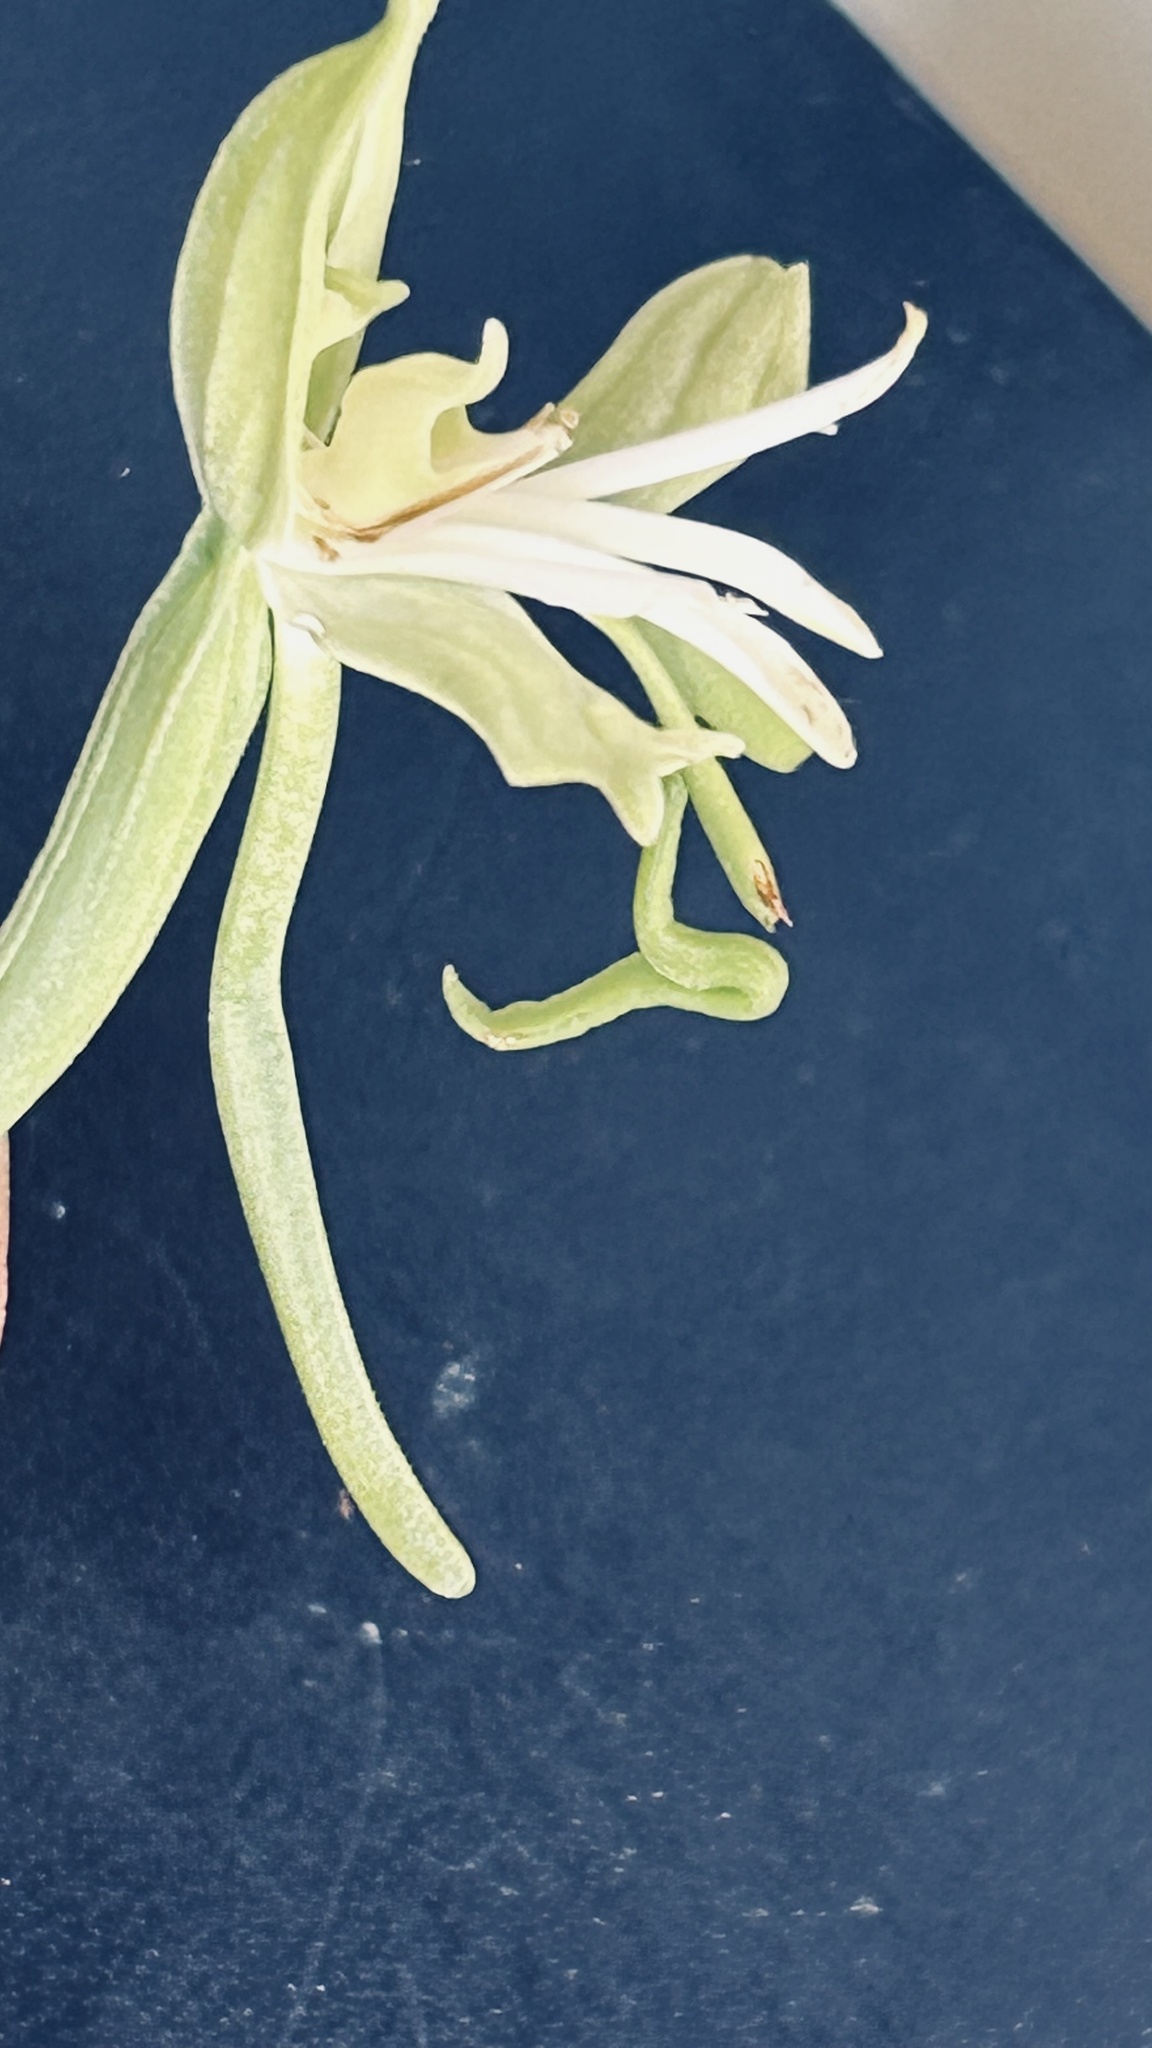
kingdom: Plantae
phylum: Tracheophyta
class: Liliopsida
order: Asparagales
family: Orchidaceae
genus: Bonatea
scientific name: Bonatea speciosa
